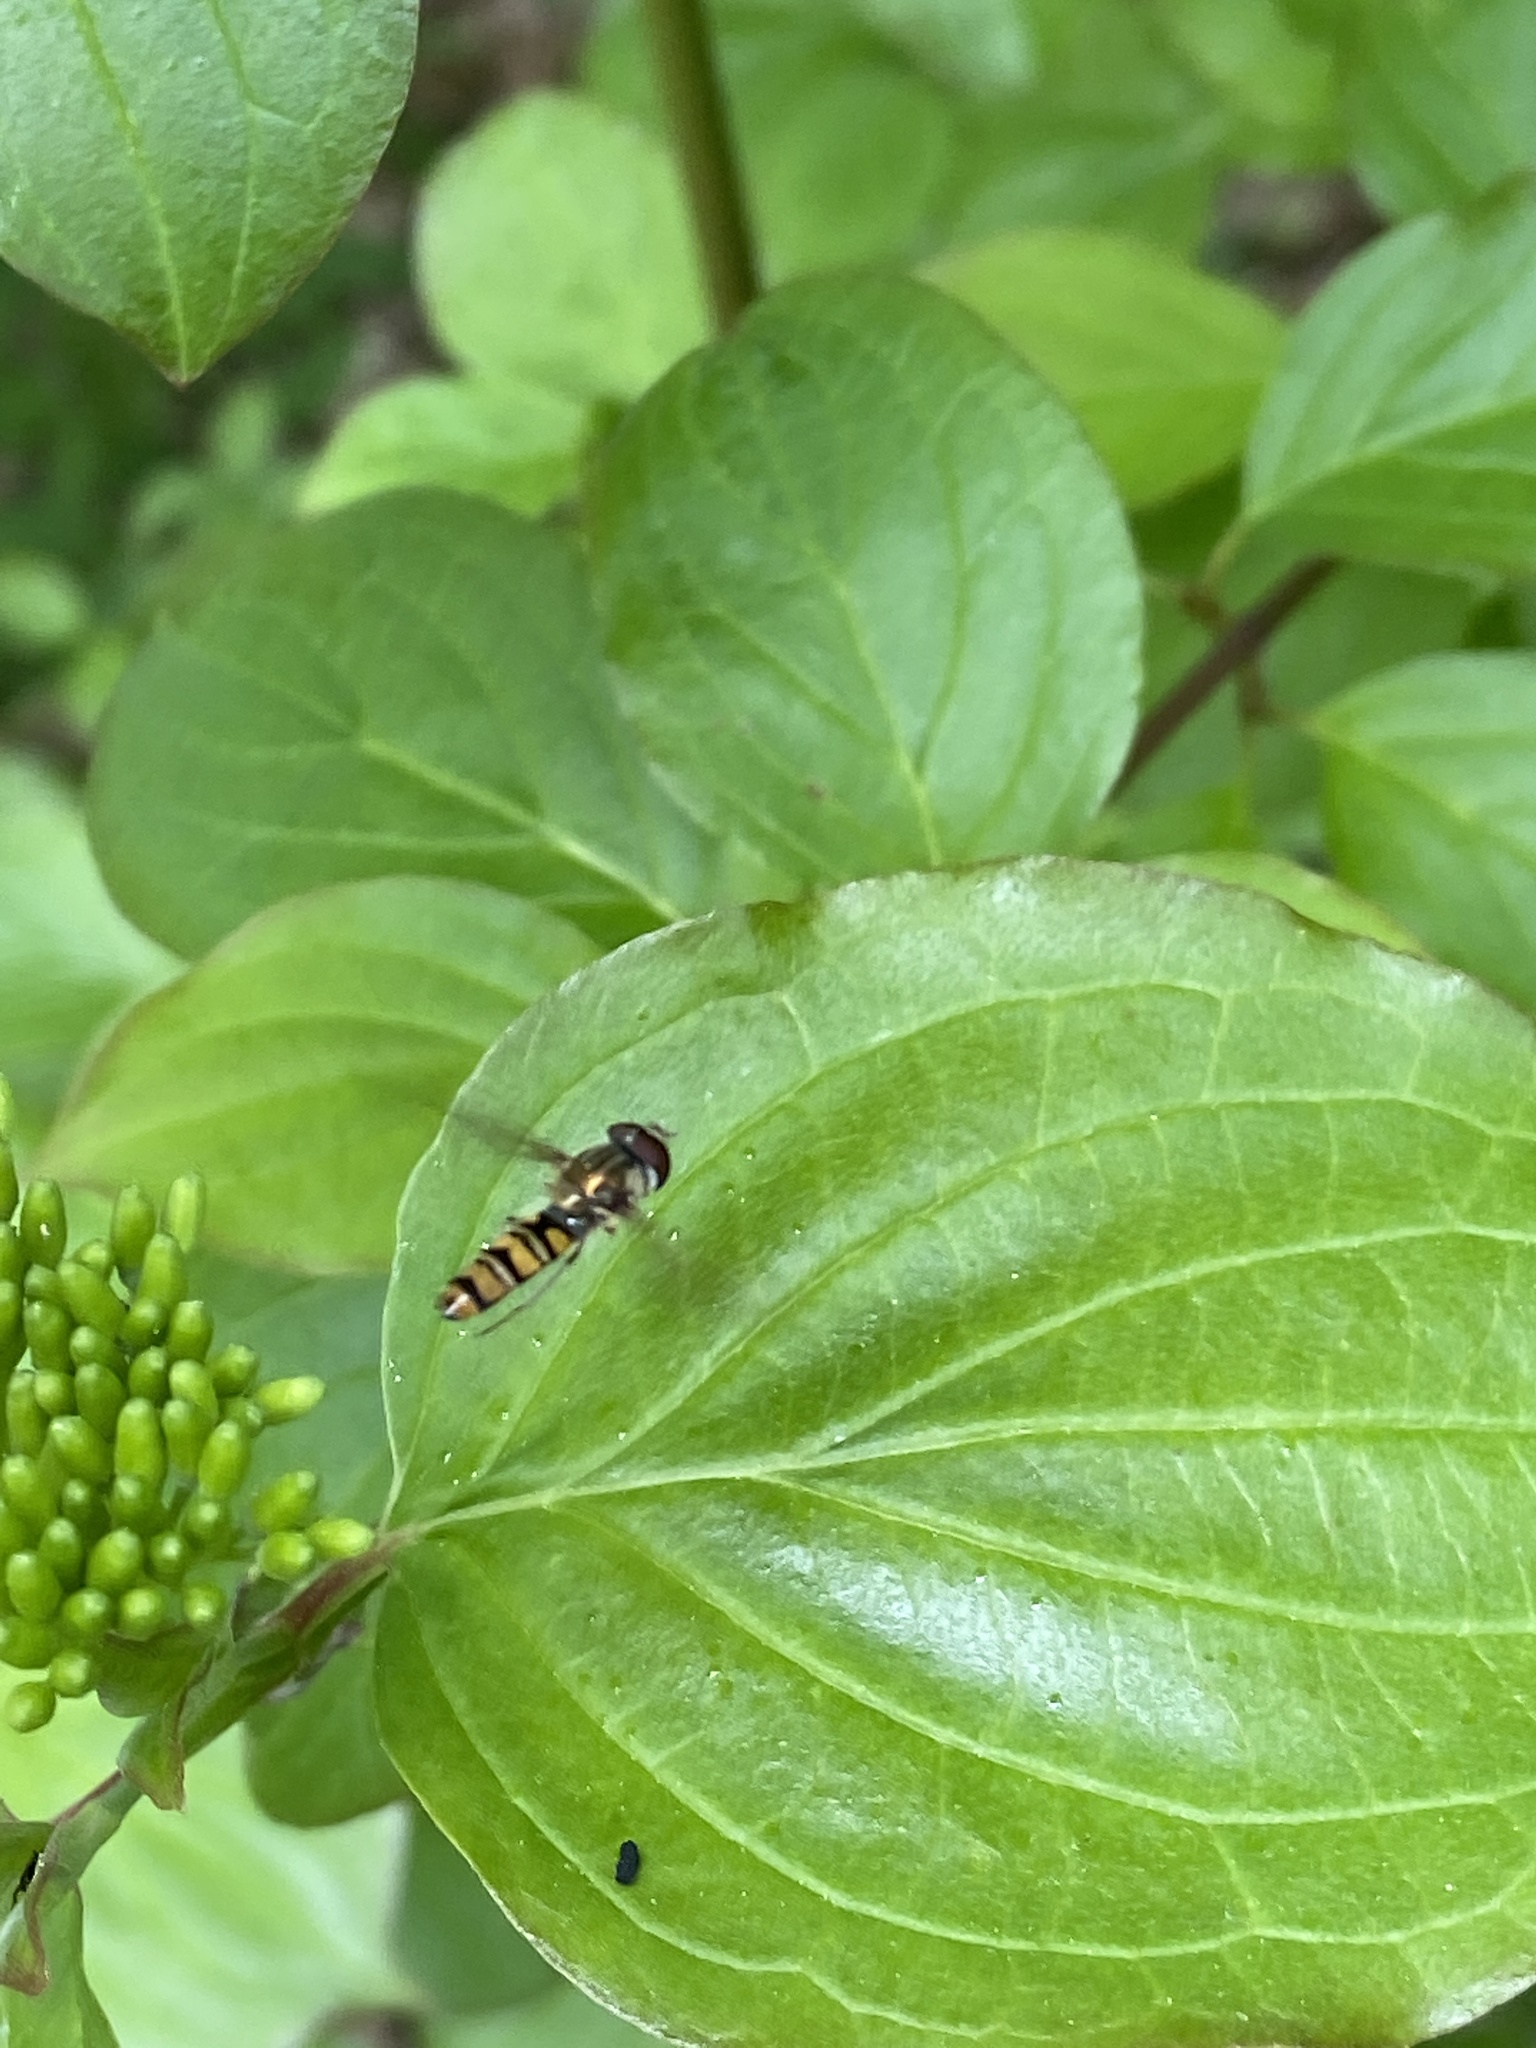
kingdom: Animalia
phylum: Arthropoda
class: Insecta
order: Diptera
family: Syrphidae
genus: Episyrphus
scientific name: Episyrphus balteatus
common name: Marmalade hoverfly
